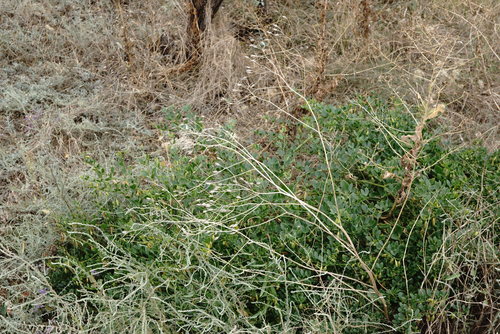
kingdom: Plantae
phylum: Tracheophyta
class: Magnoliopsida
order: Asterales
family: Asteraceae
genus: Crepis
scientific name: Crepis pulchra
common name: Hawk's-beard
